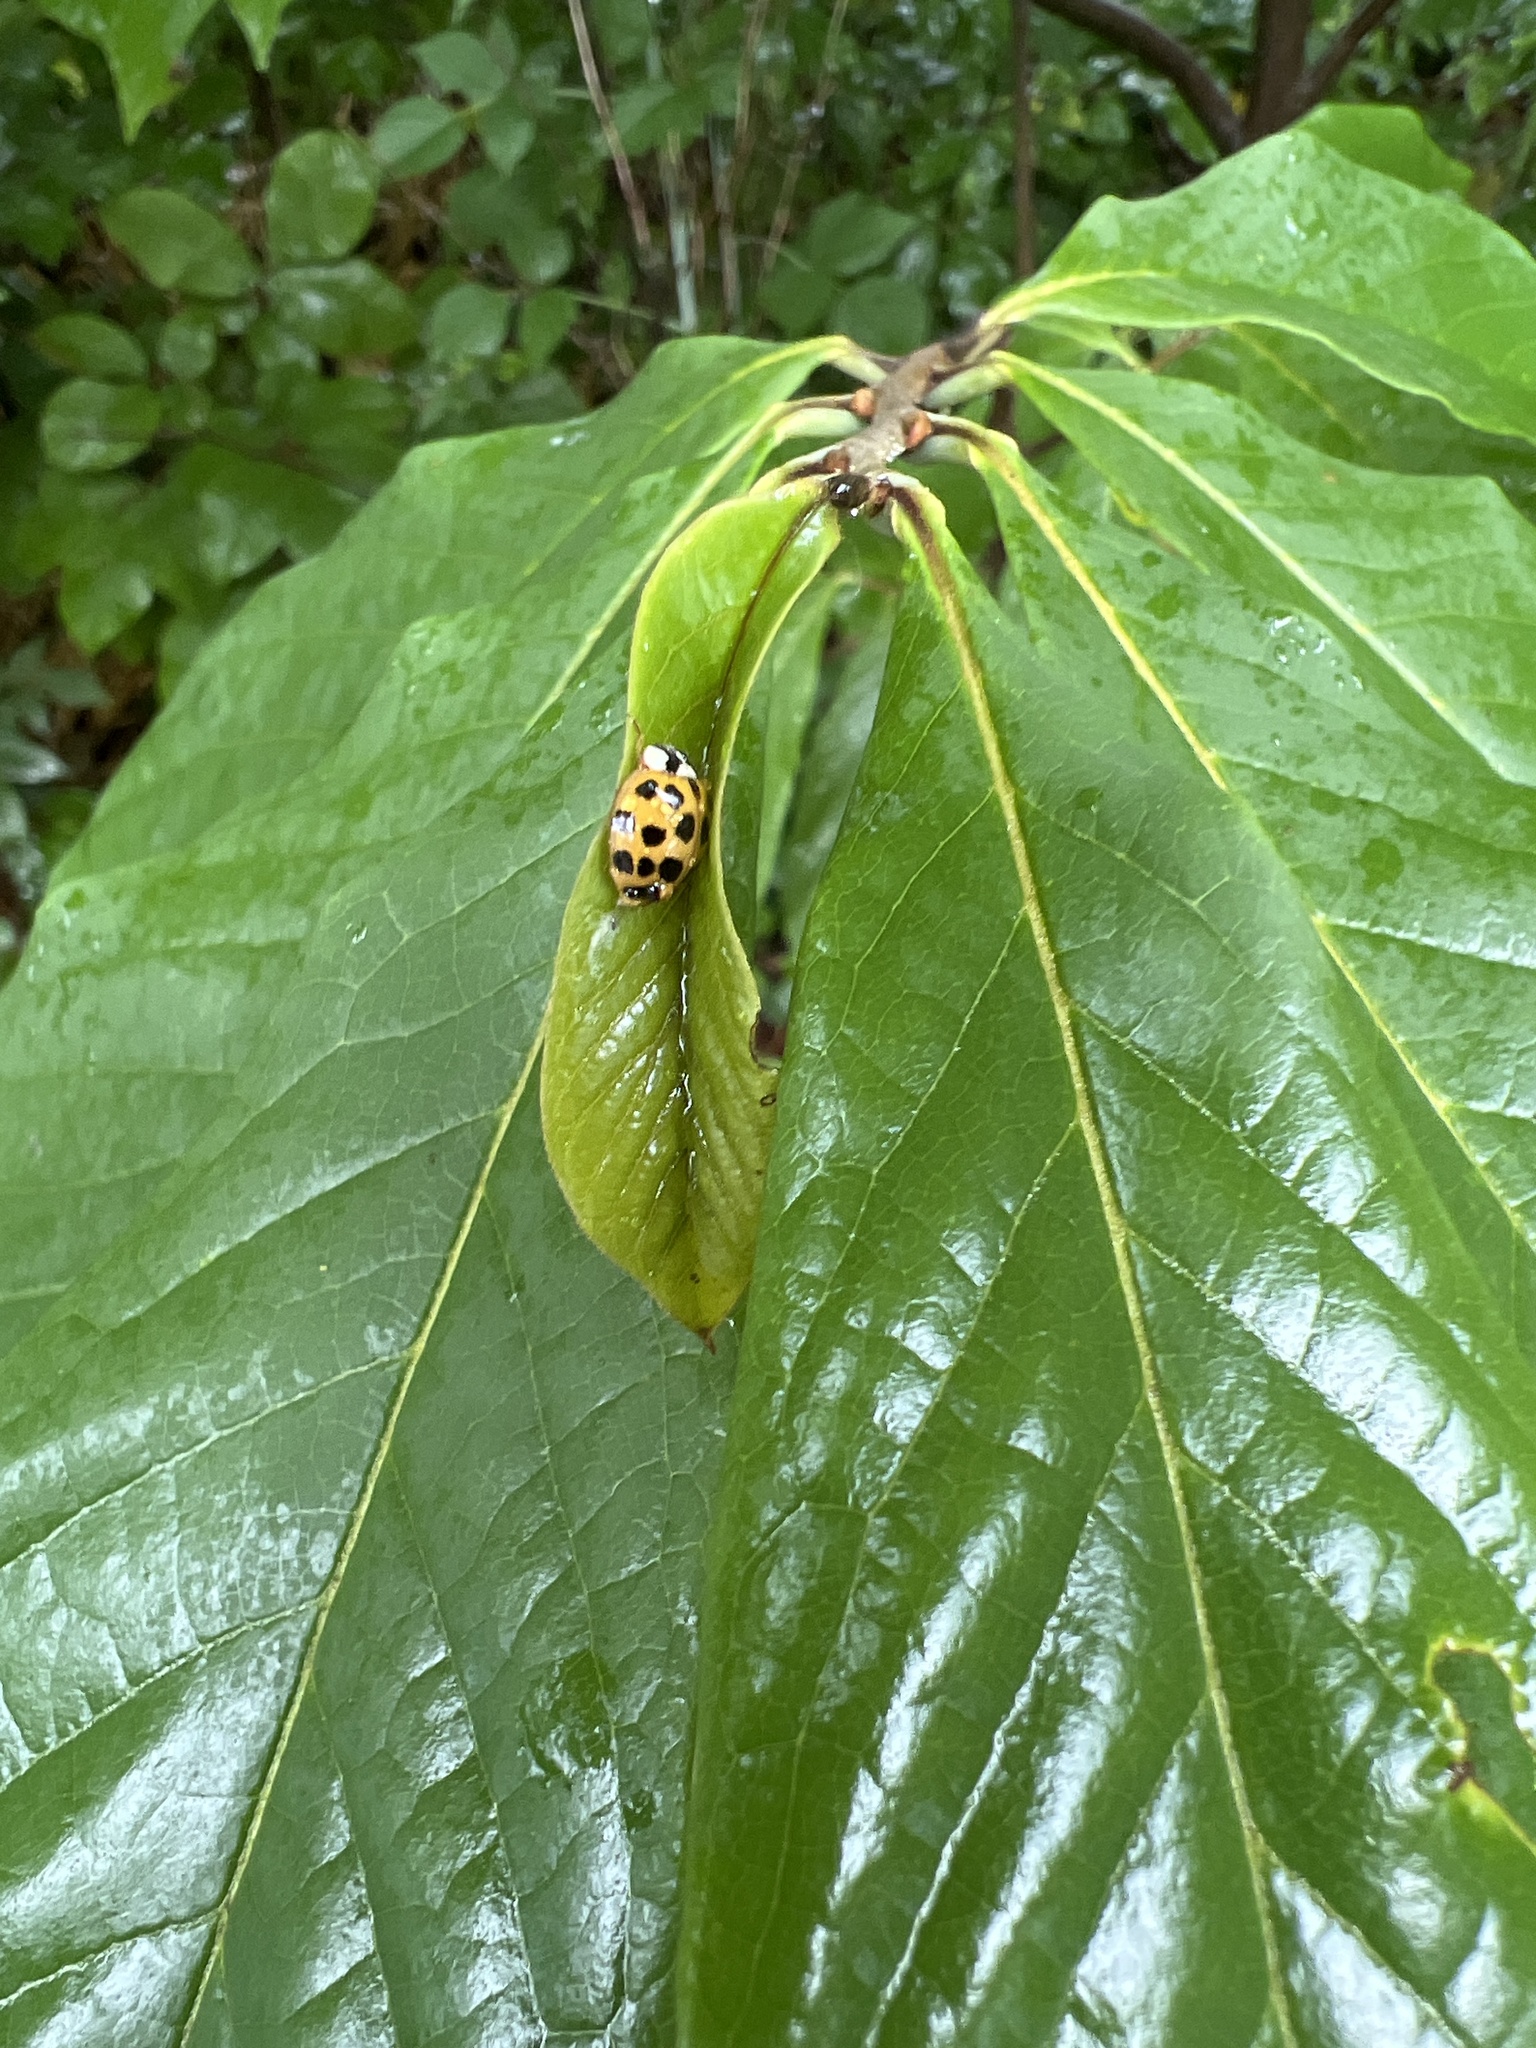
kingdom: Animalia
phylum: Arthropoda
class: Insecta
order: Coleoptera
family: Coccinellidae
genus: Harmonia
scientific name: Harmonia axyridis
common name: Harlequin ladybird
